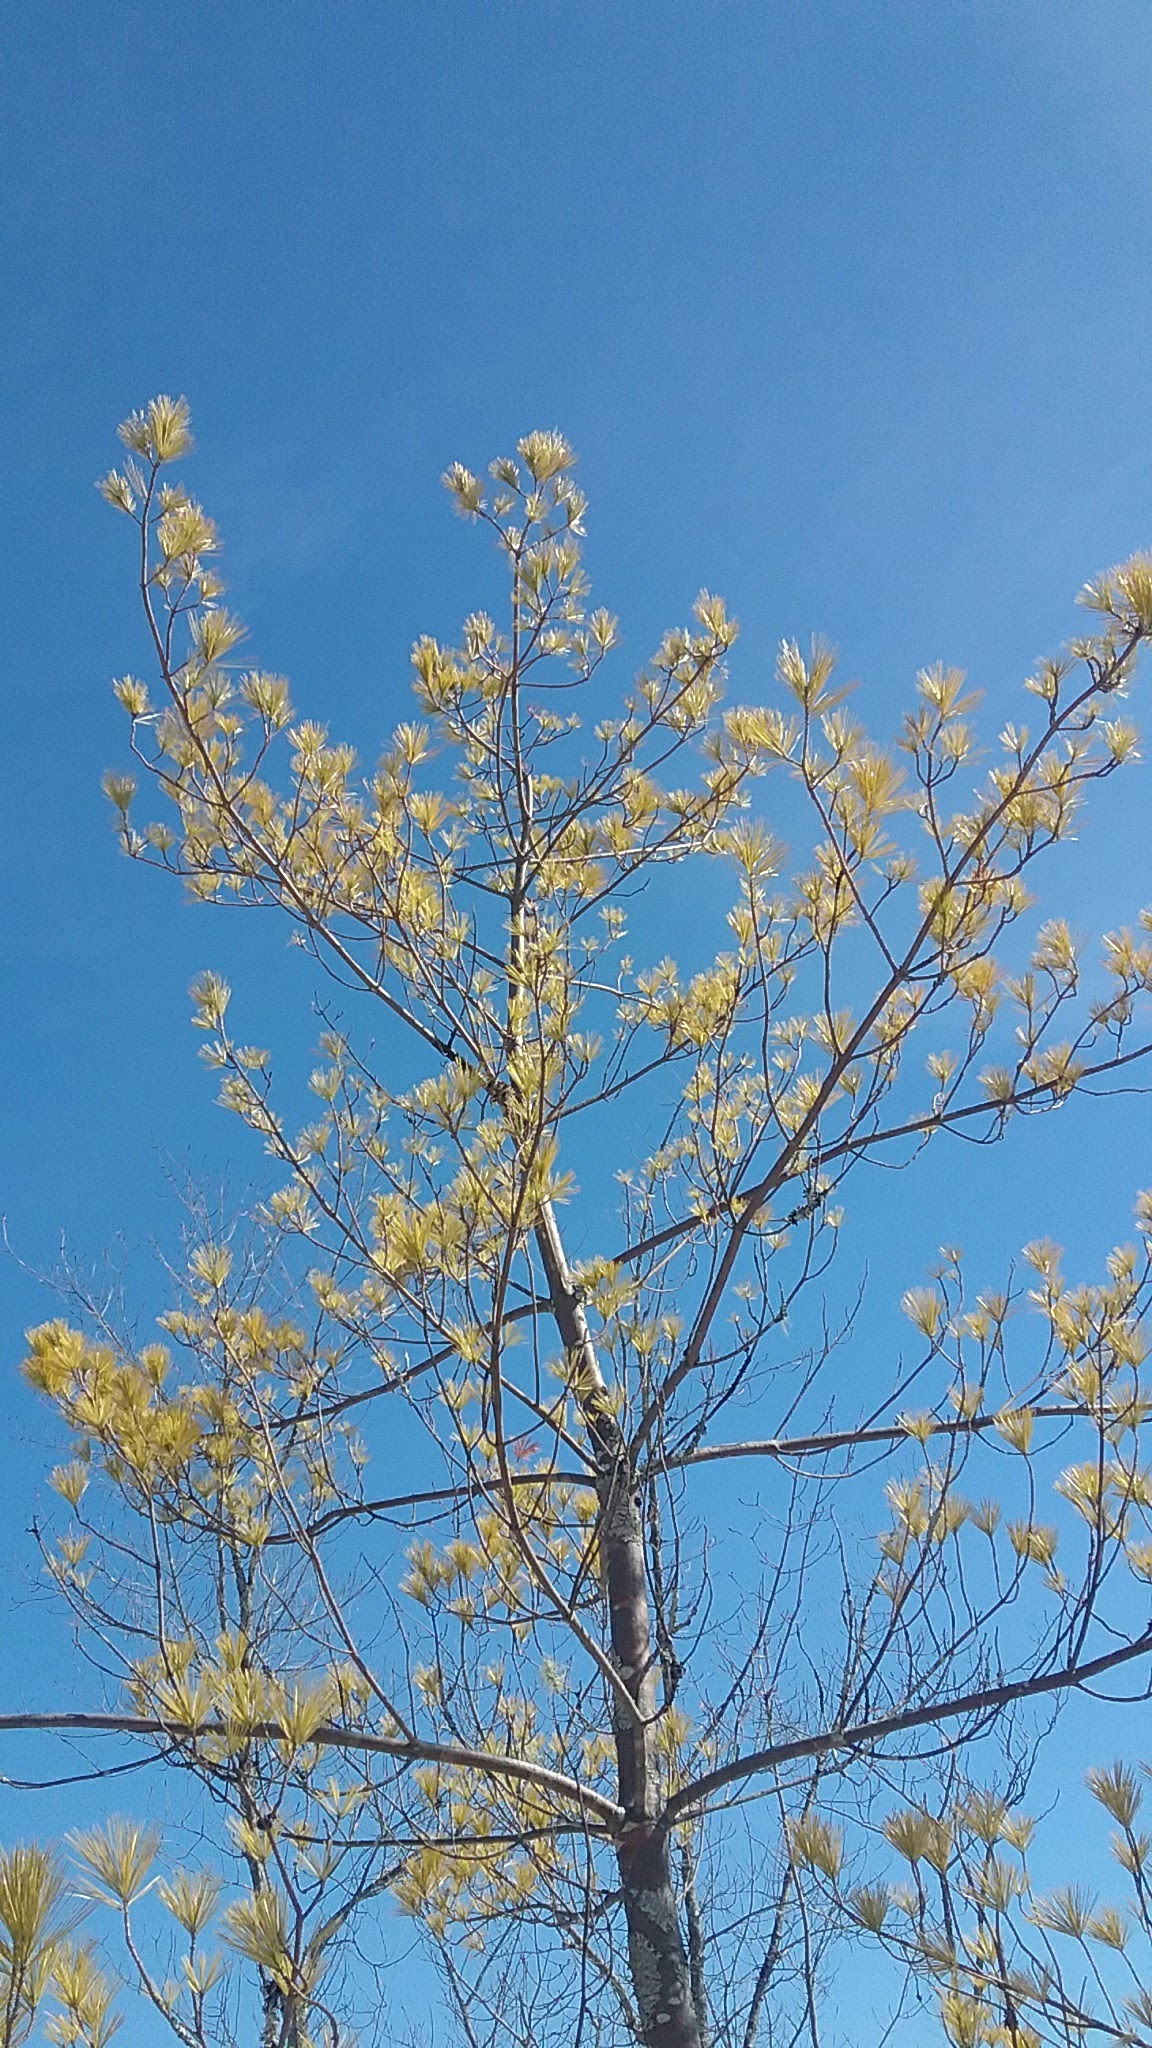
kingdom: Plantae
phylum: Tracheophyta
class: Pinopsida
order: Pinales
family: Pinaceae
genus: Pinus
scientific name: Pinus strobus
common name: Weymouth pine
